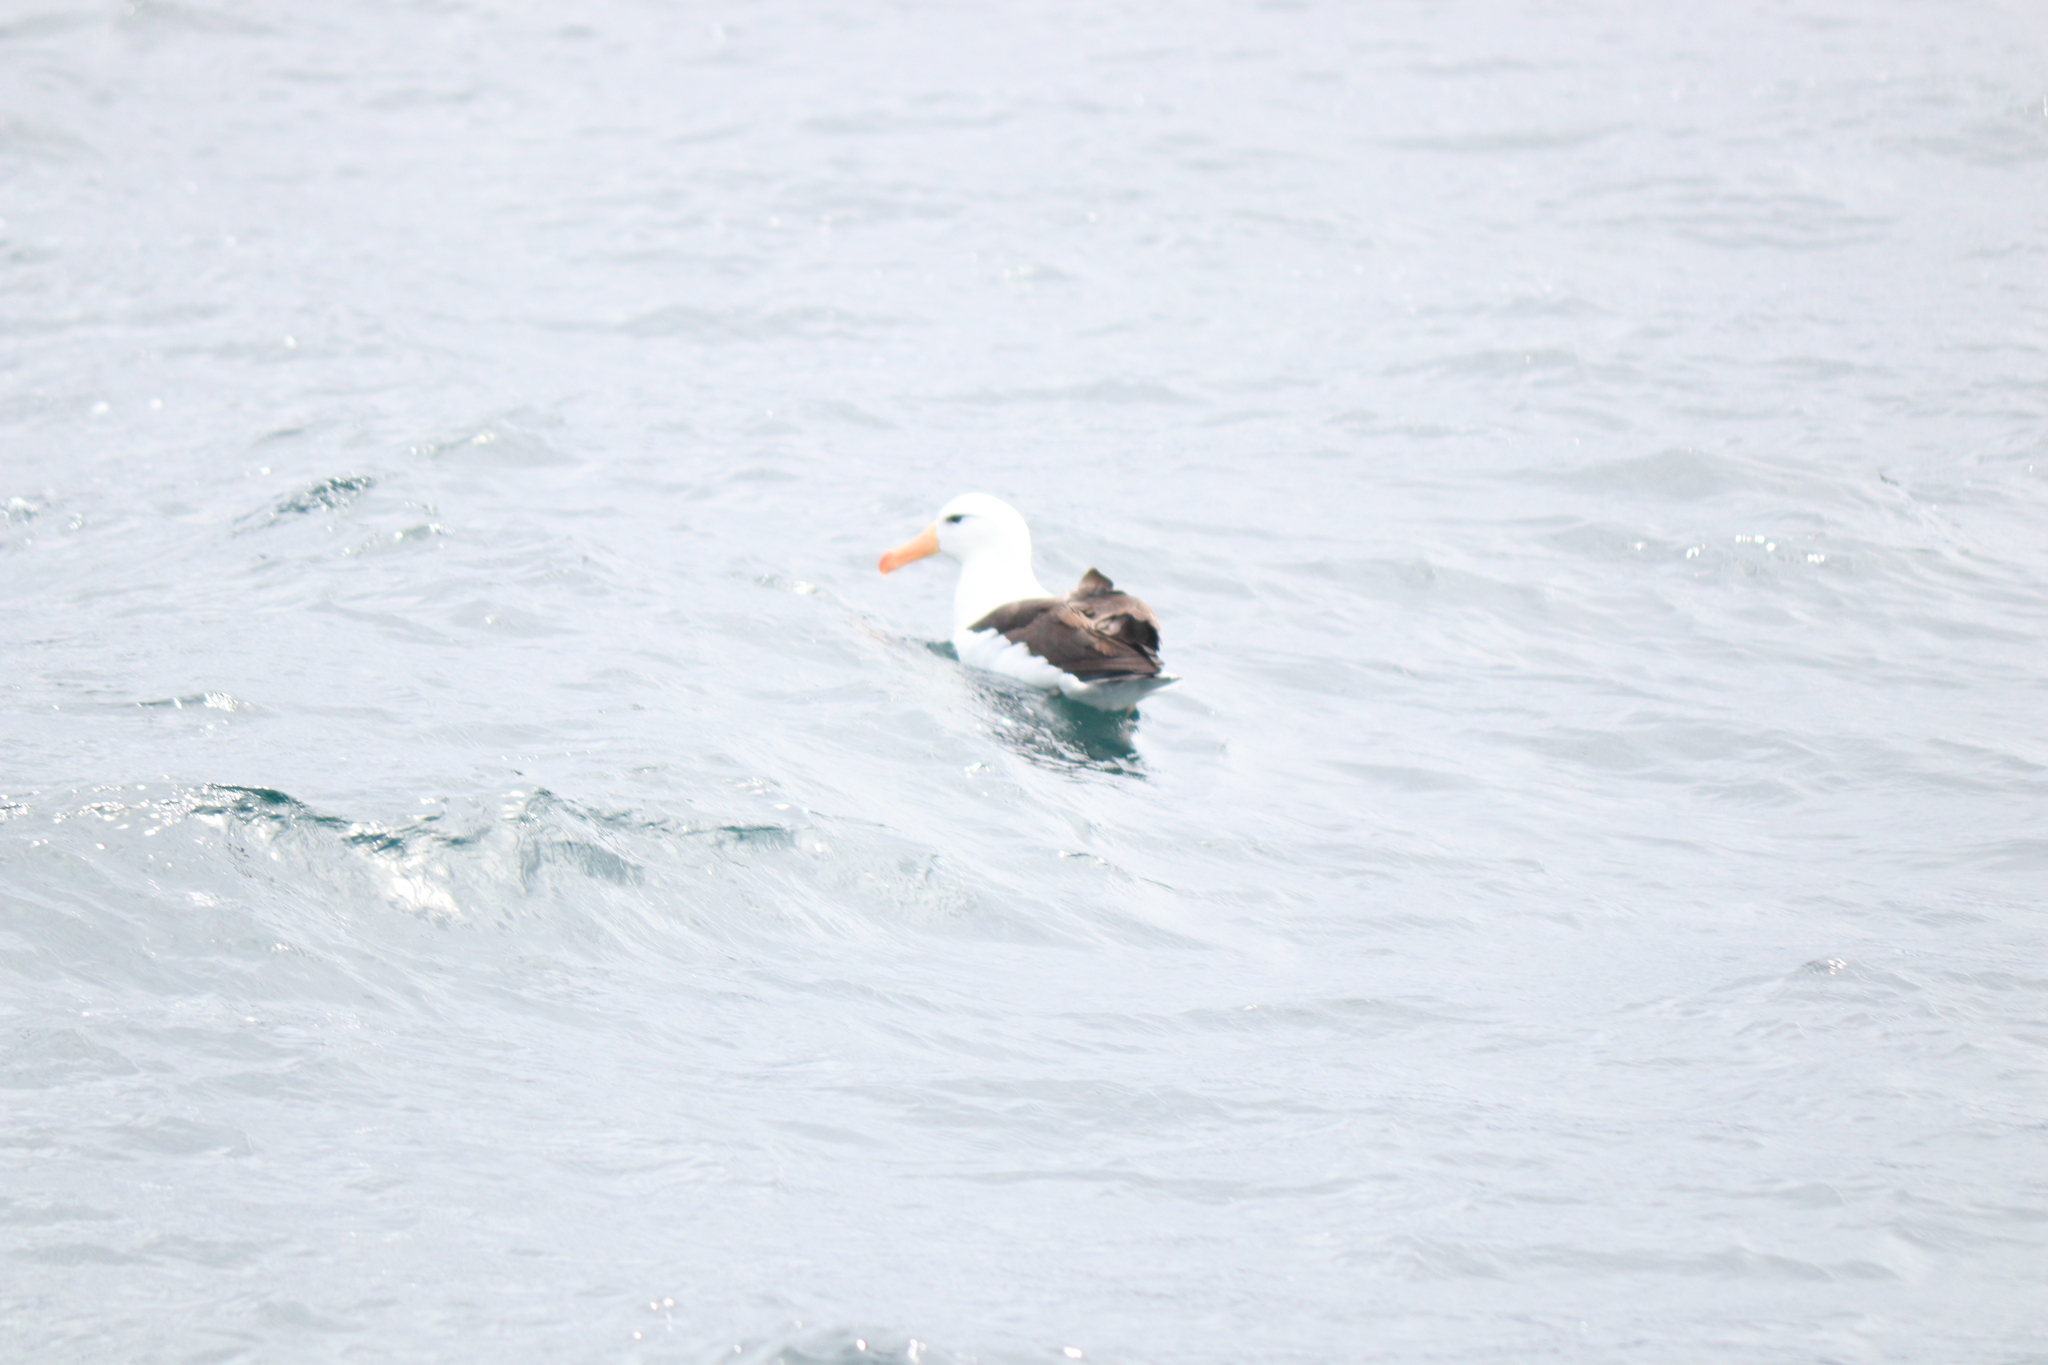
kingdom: Animalia
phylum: Chordata
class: Aves
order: Procellariiformes
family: Diomedeidae
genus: Thalassarche
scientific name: Thalassarche melanophris
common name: Black-browed albatross
